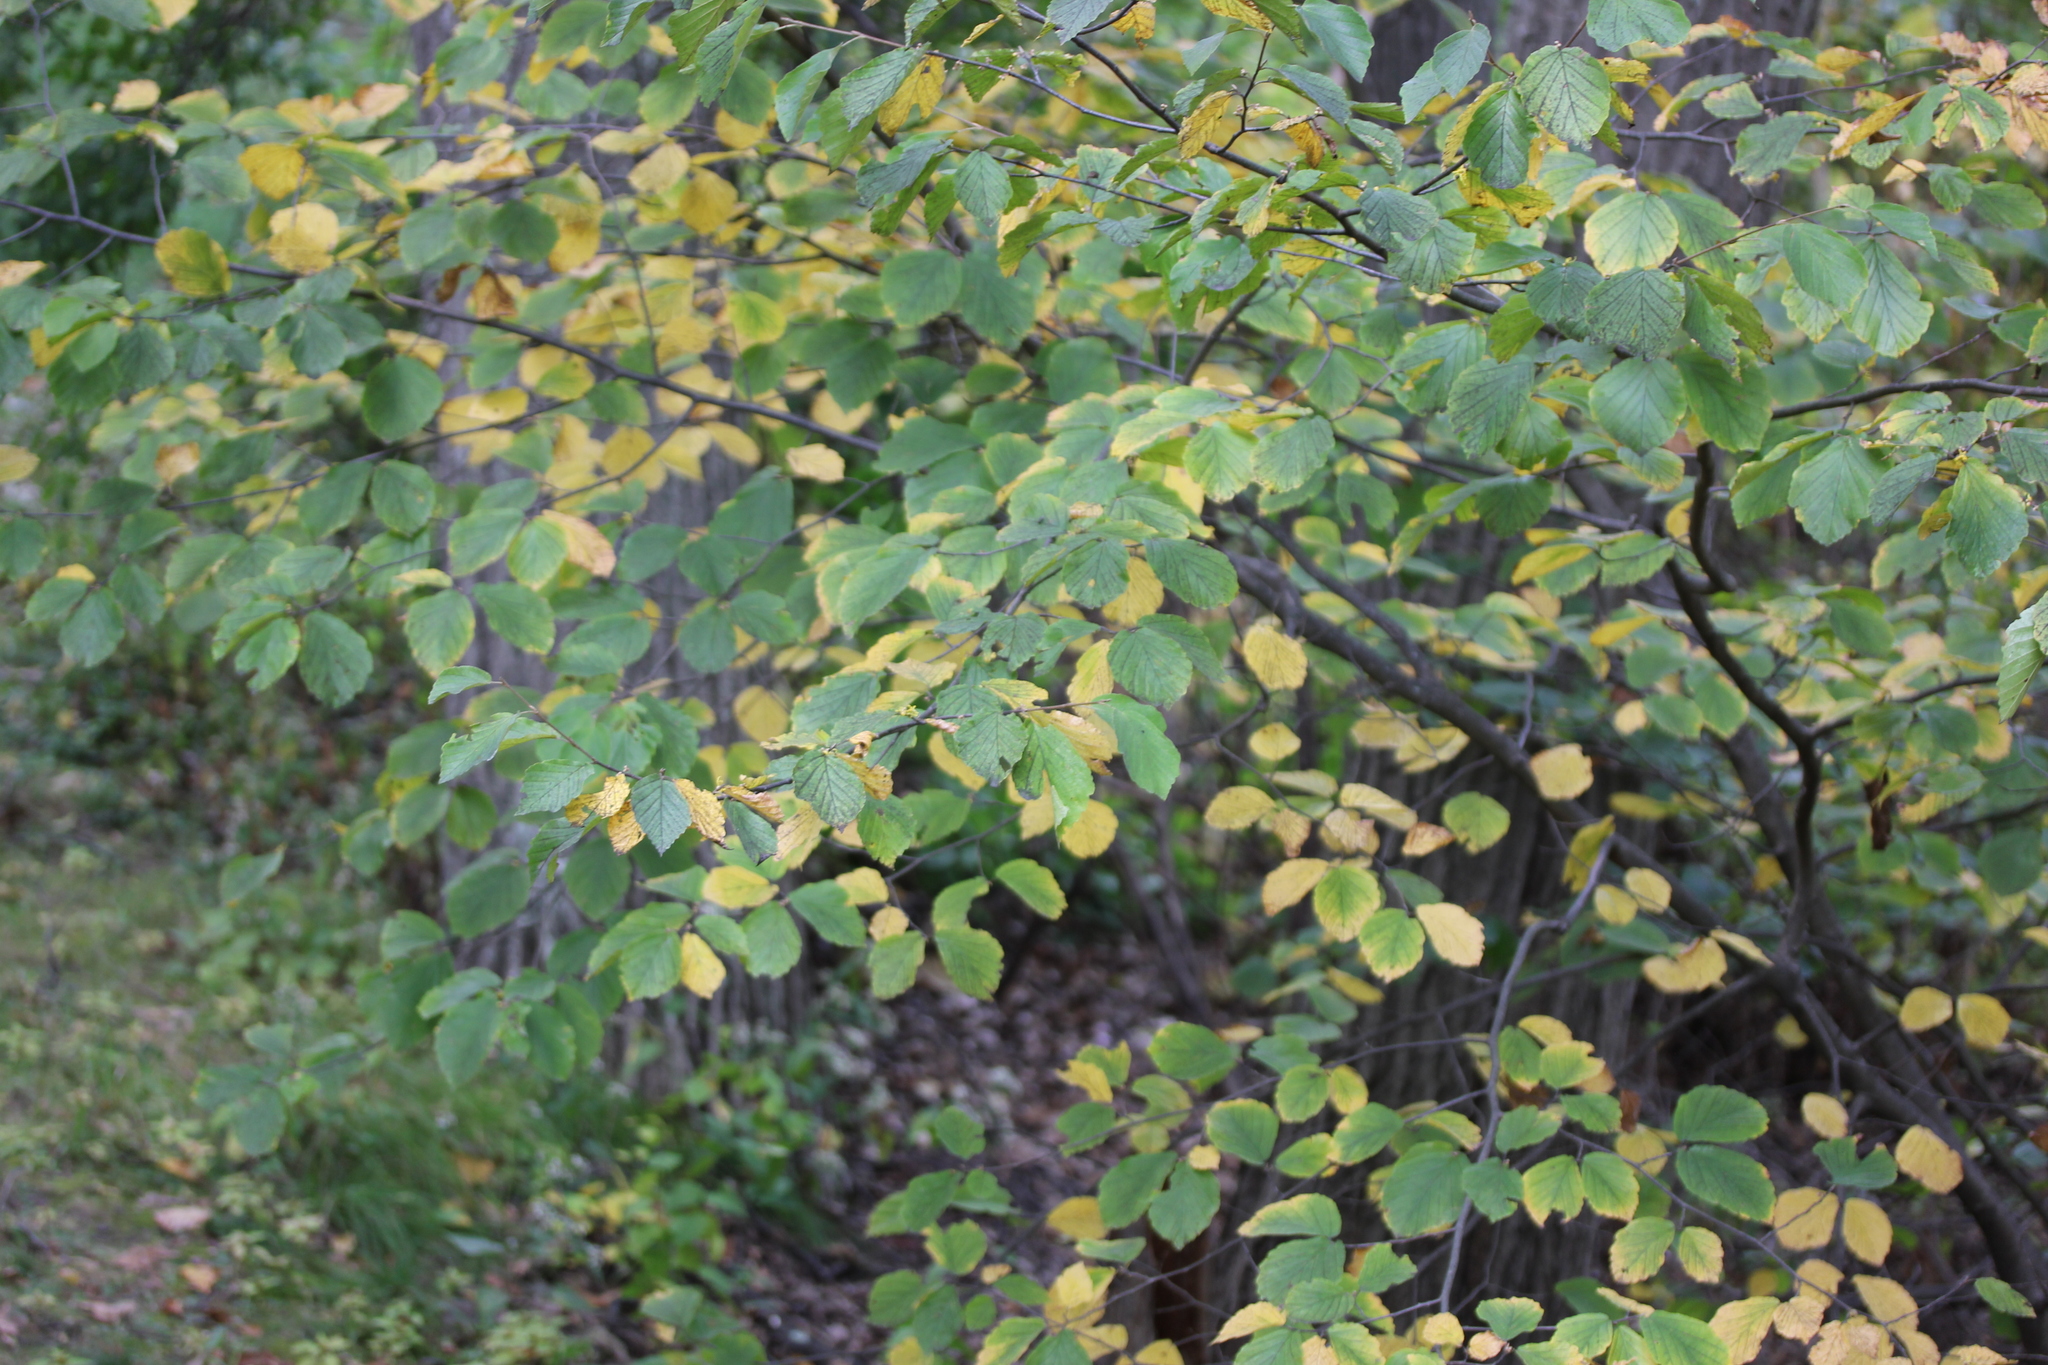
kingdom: Plantae
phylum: Tracheophyta
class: Magnoliopsida
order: Saxifragales
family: Hamamelidaceae
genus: Hamamelis
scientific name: Hamamelis virginiana
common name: Witch-hazel
